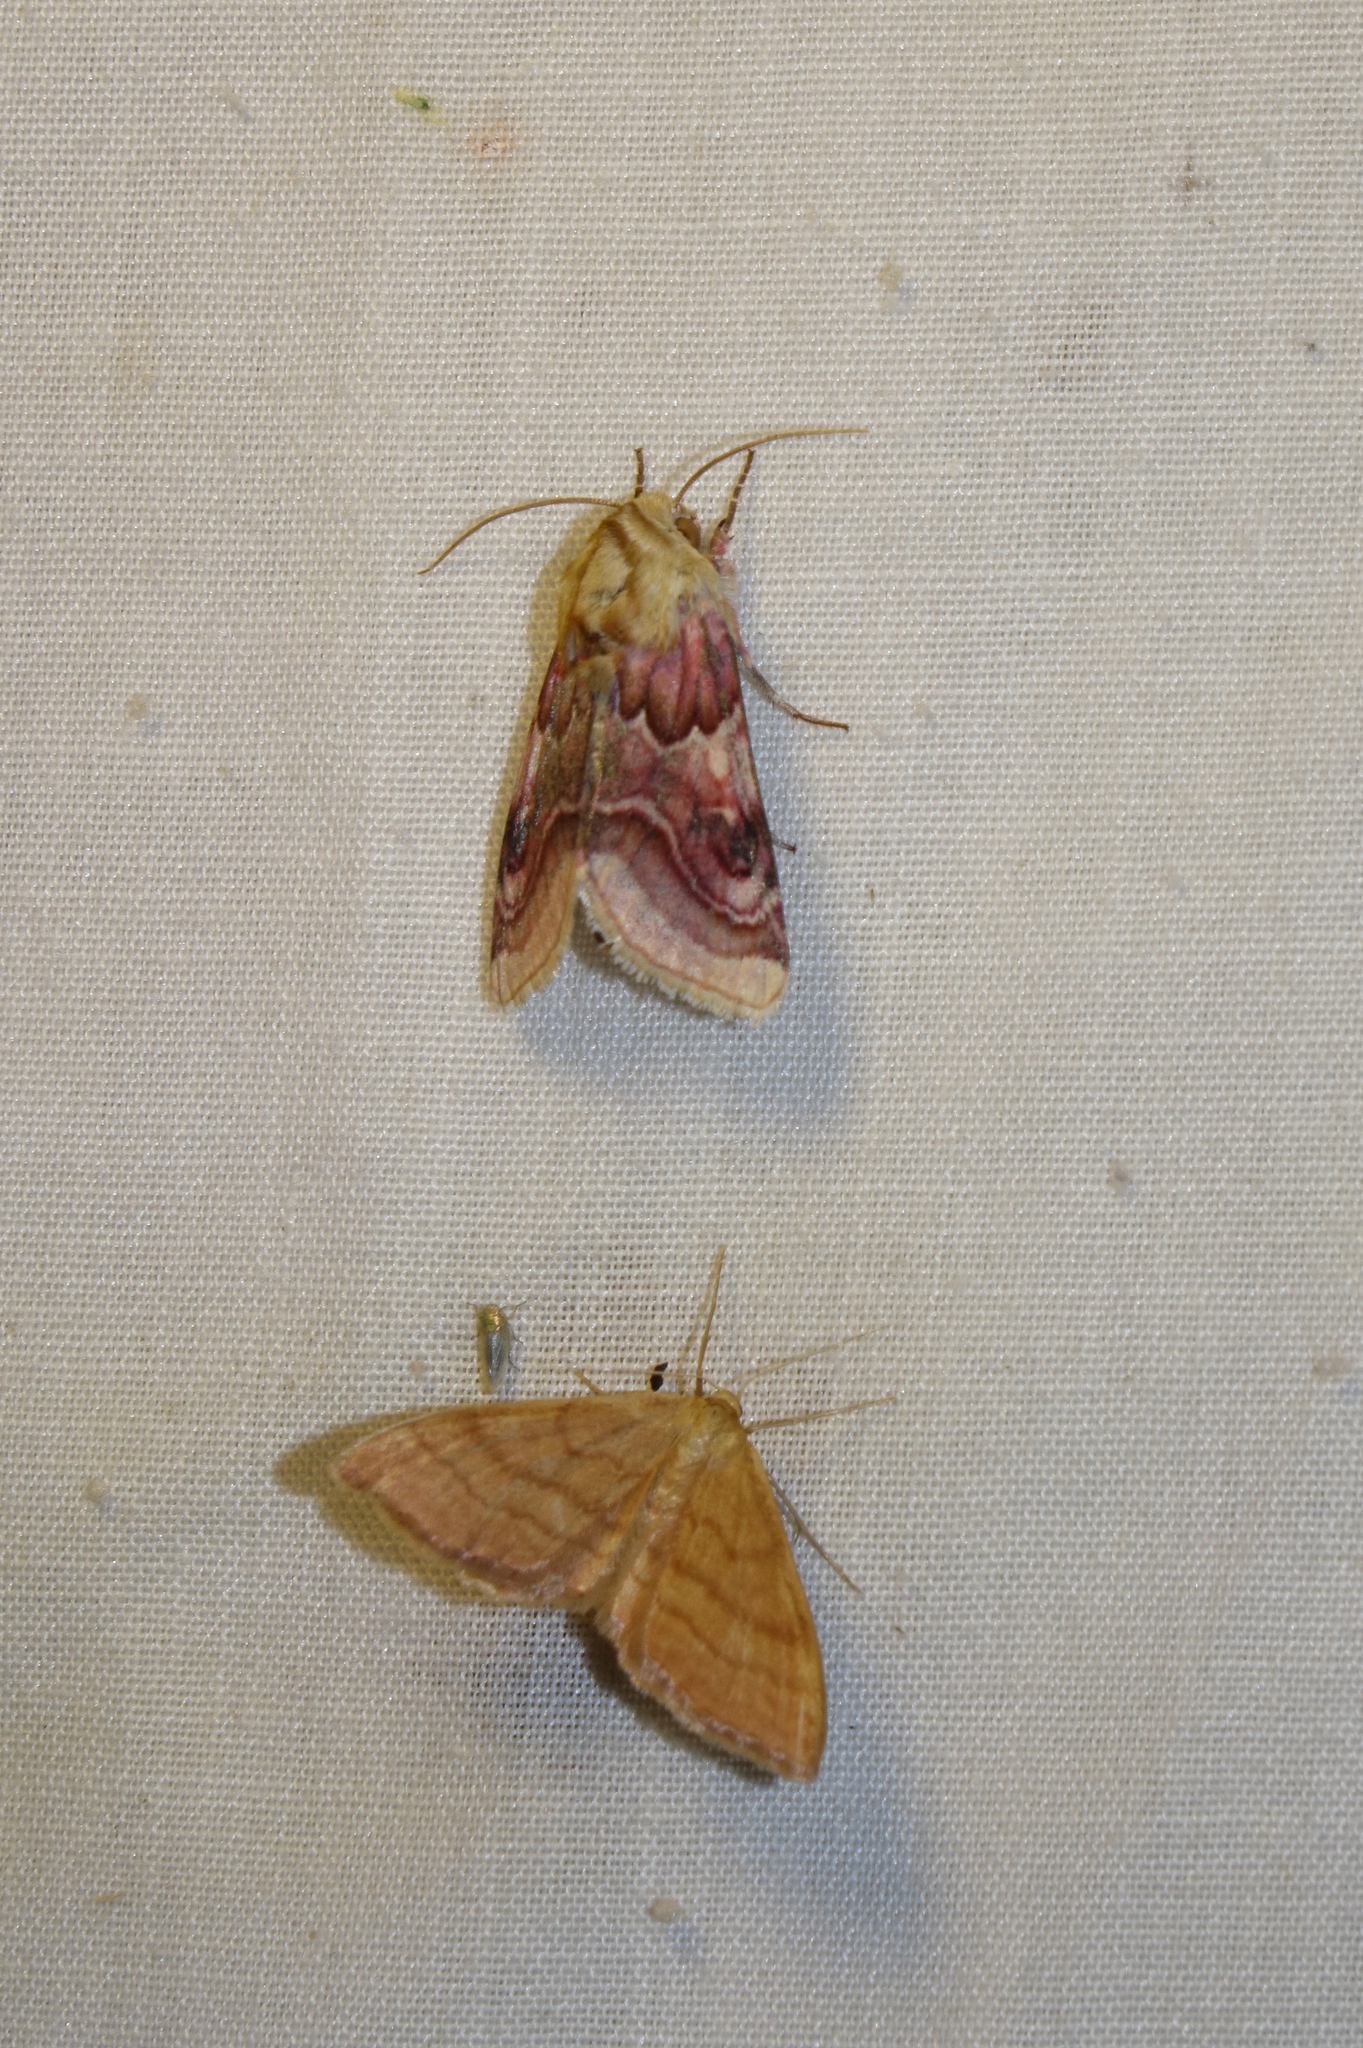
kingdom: Animalia
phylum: Arthropoda
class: Insecta
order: Lepidoptera
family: Noctuidae
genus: Periphanes
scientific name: Periphanes delphinii
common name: Pease blossom
